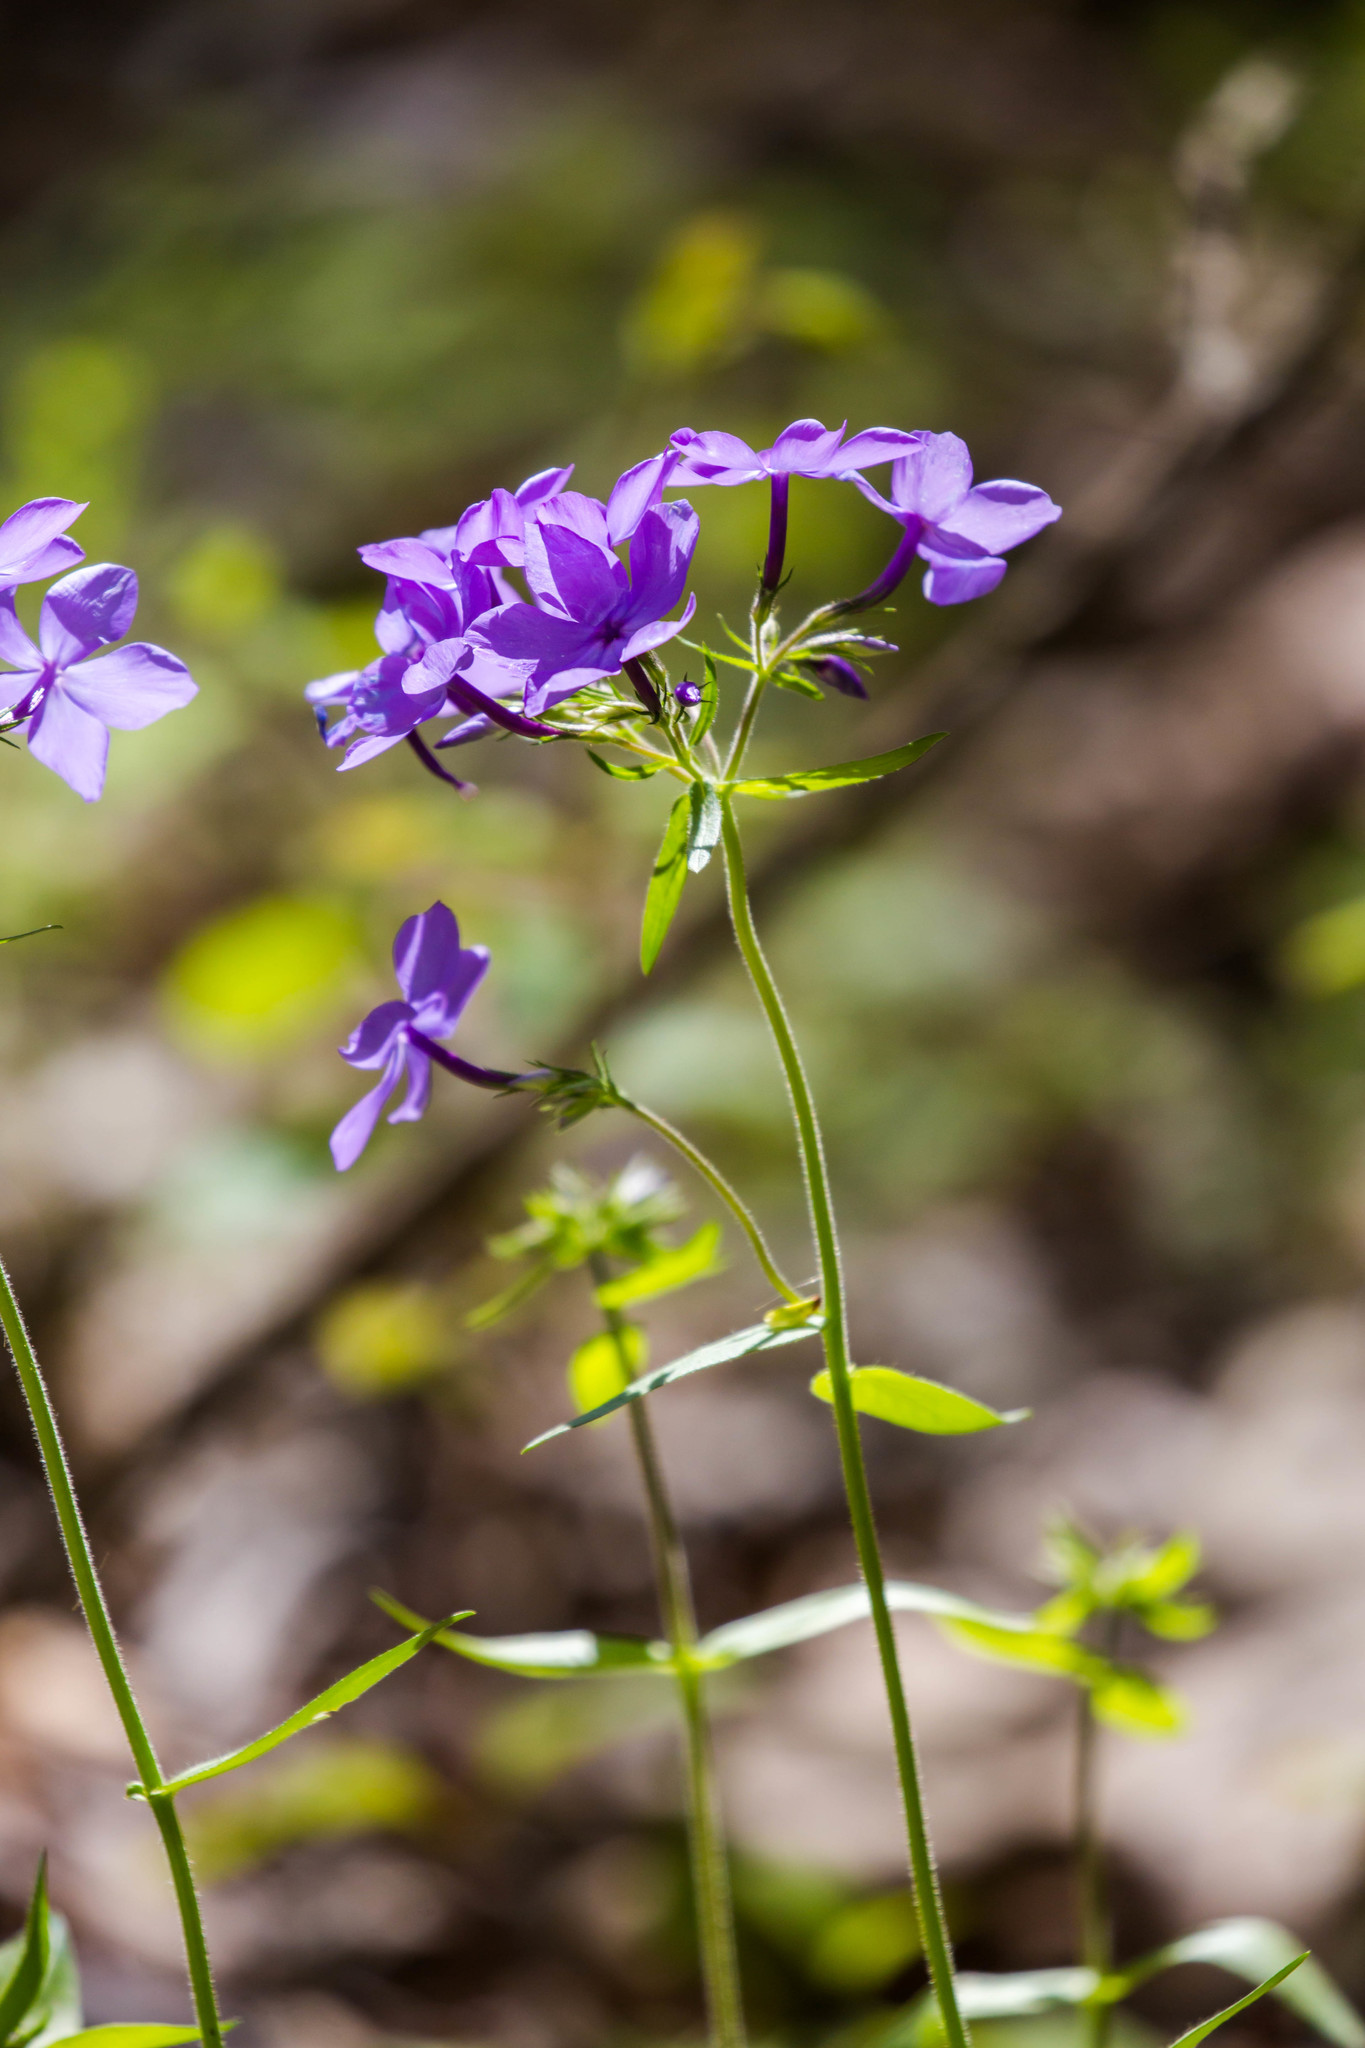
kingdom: Plantae
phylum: Tracheophyta
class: Magnoliopsida
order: Ericales
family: Polemoniaceae
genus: Phlox
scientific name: Phlox divaricata
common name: Blue phlox
